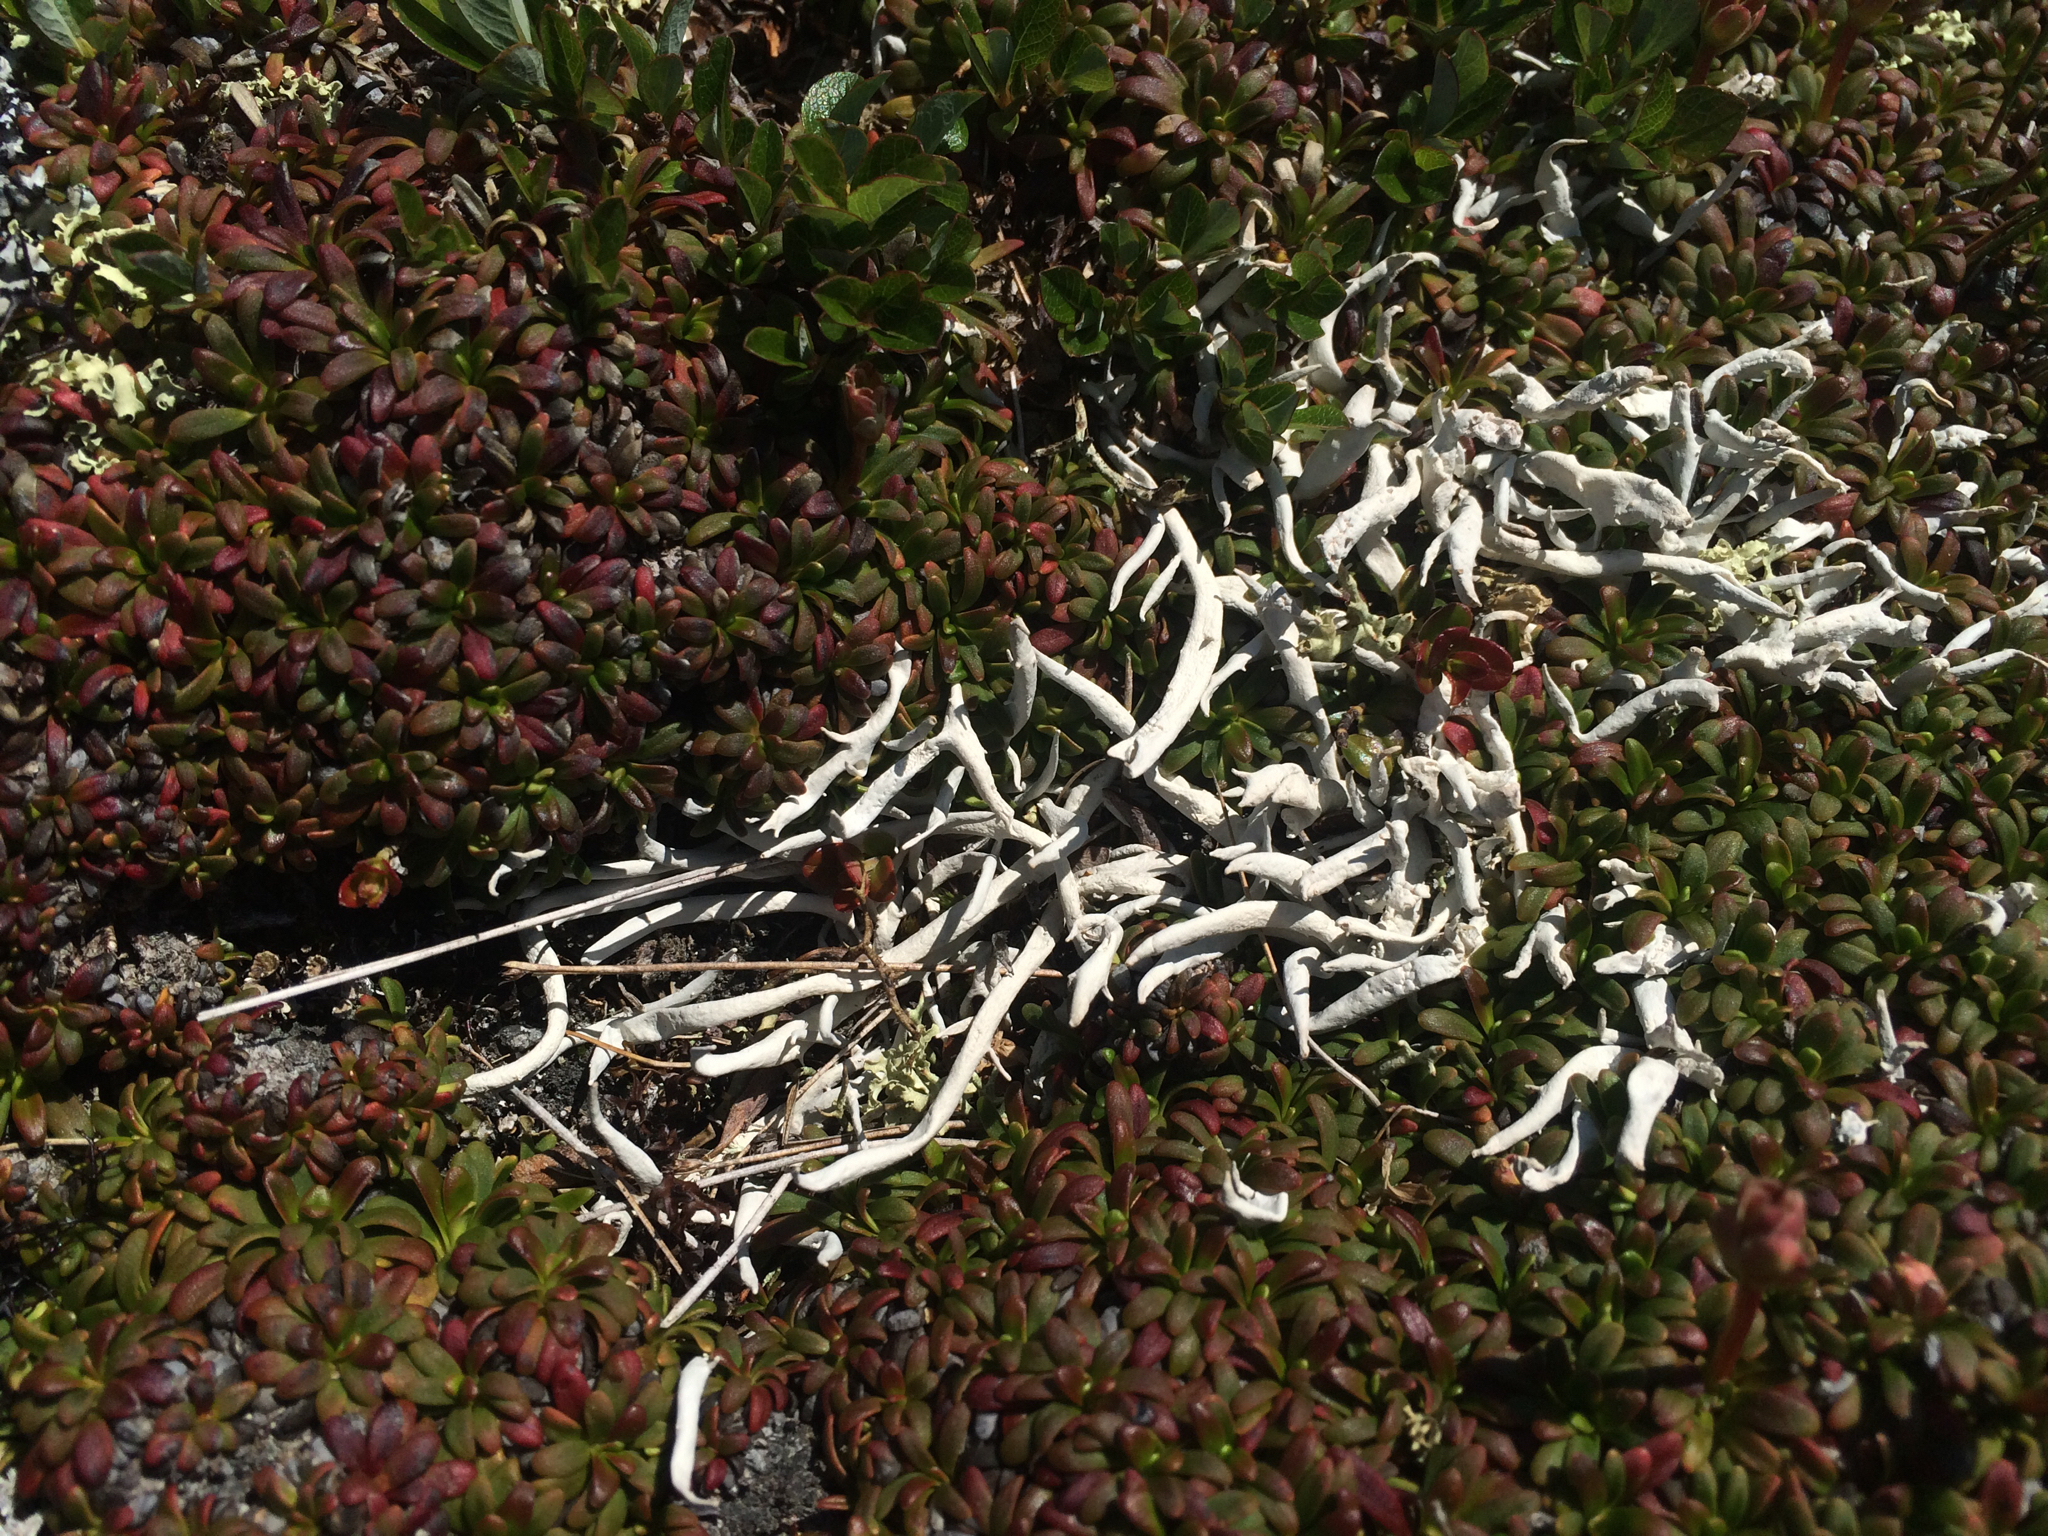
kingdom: Fungi
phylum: Ascomycota
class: Lecanoromycetes
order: Pertusariales
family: Icmadophilaceae
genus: Thamnolia
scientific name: Thamnolia vermicularis
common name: Whiteworm lichen
